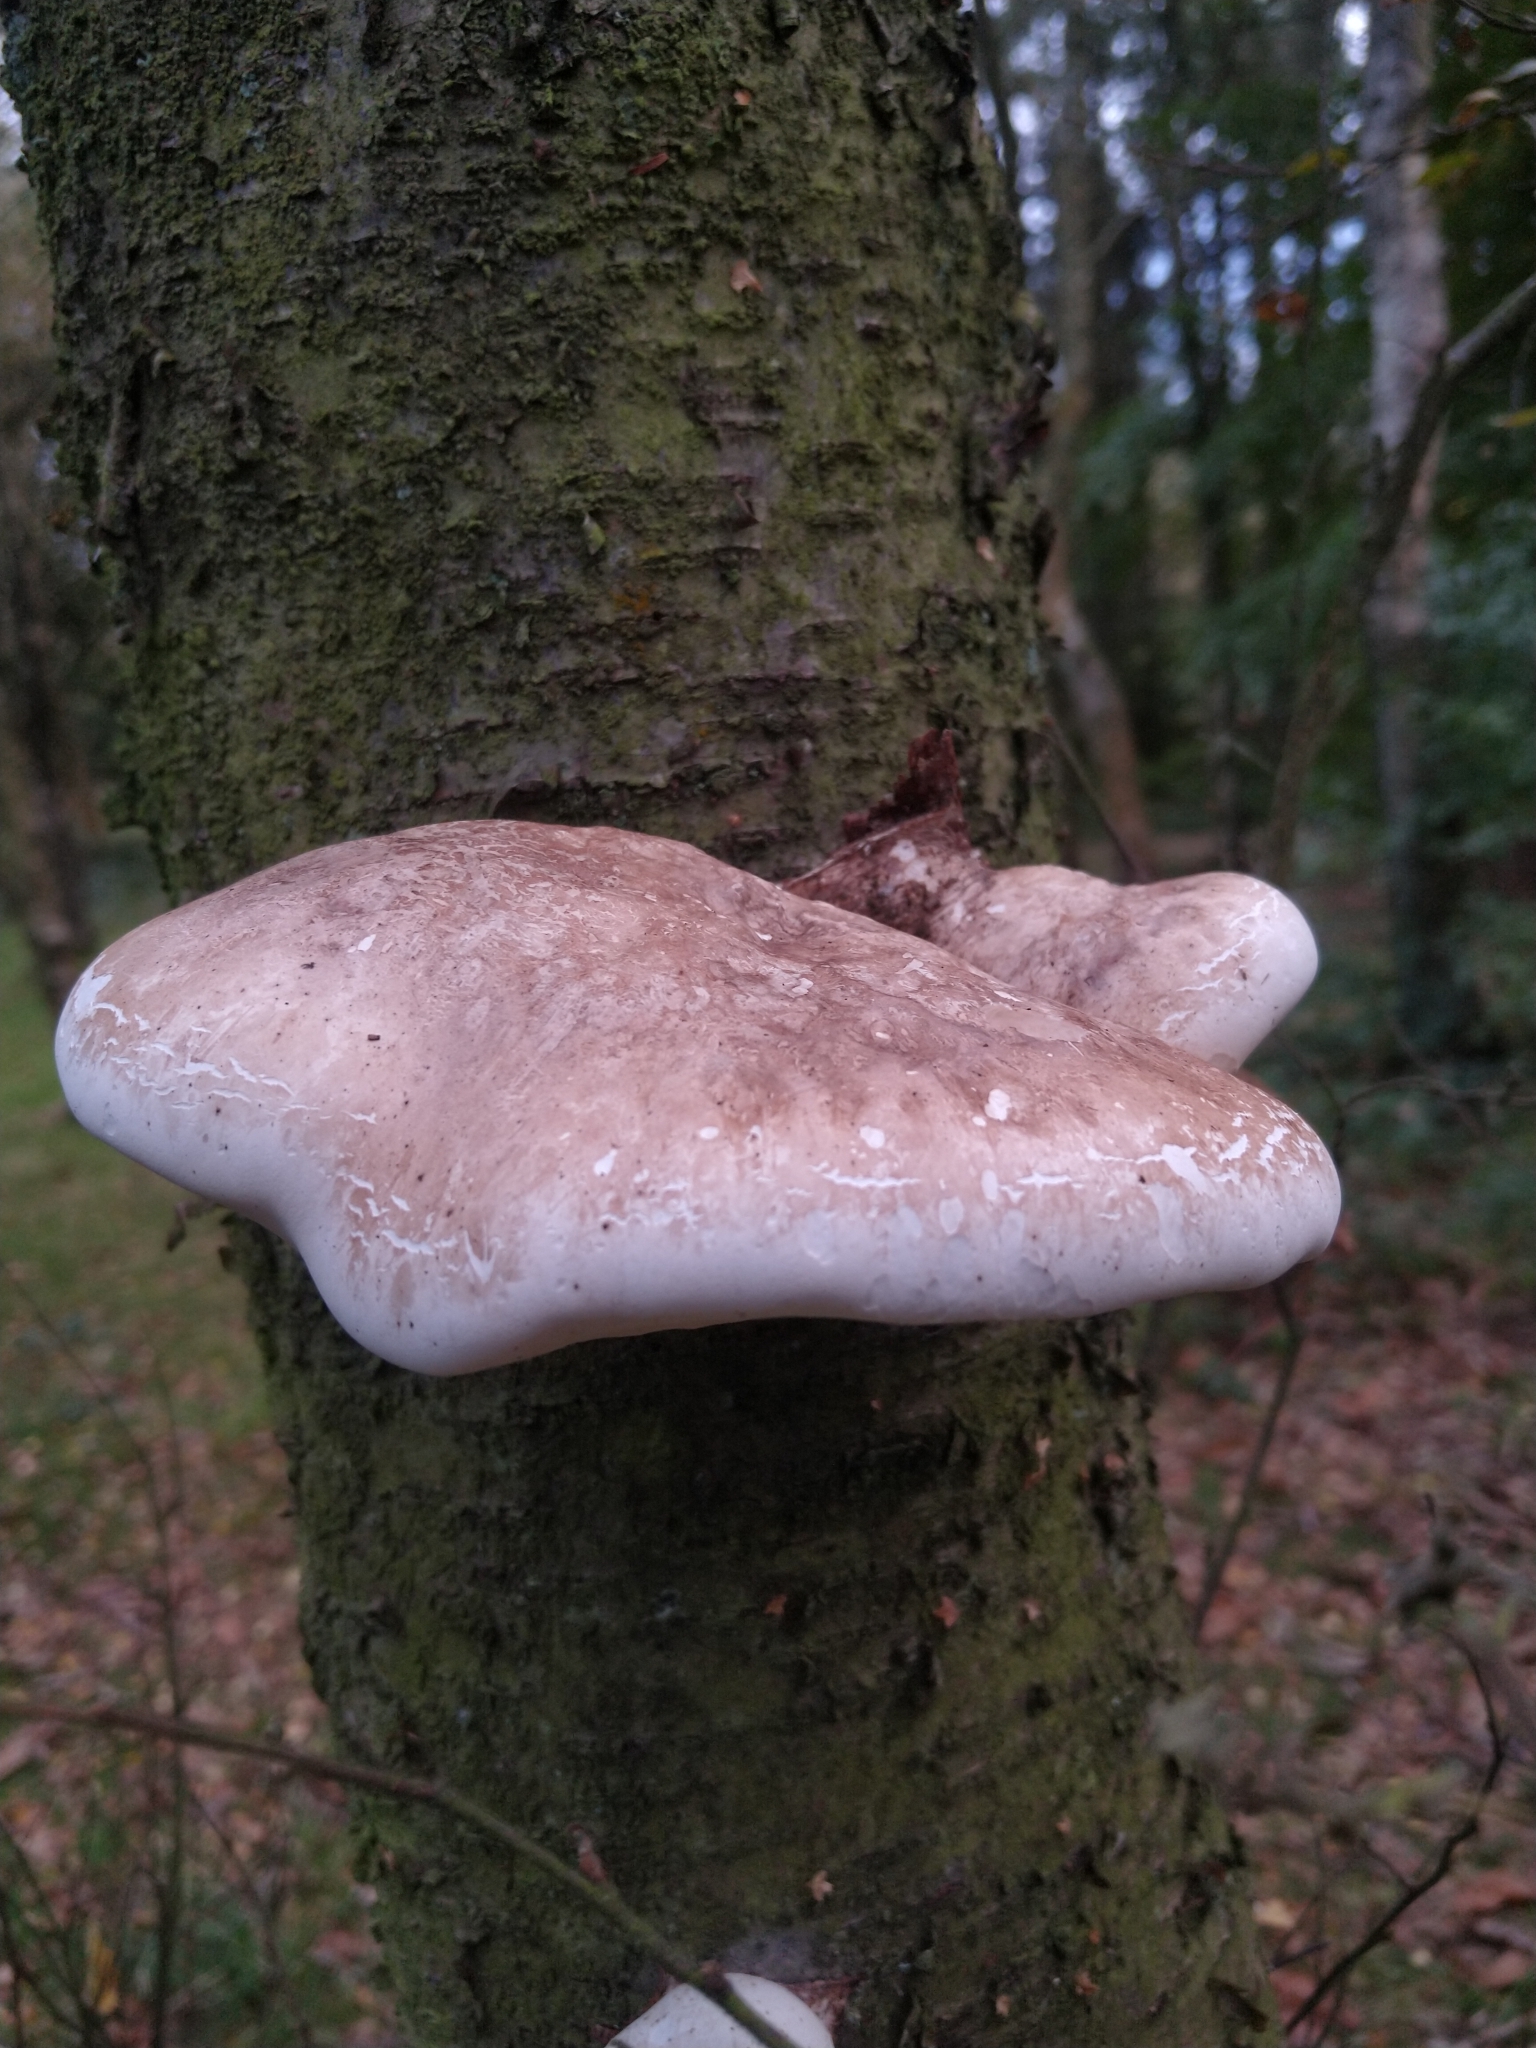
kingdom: Fungi
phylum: Basidiomycota
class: Agaricomycetes
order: Polyporales
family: Fomitopsidaceae
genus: Fomitopsis
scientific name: Fomitopsis betulina
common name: Birch polypore
